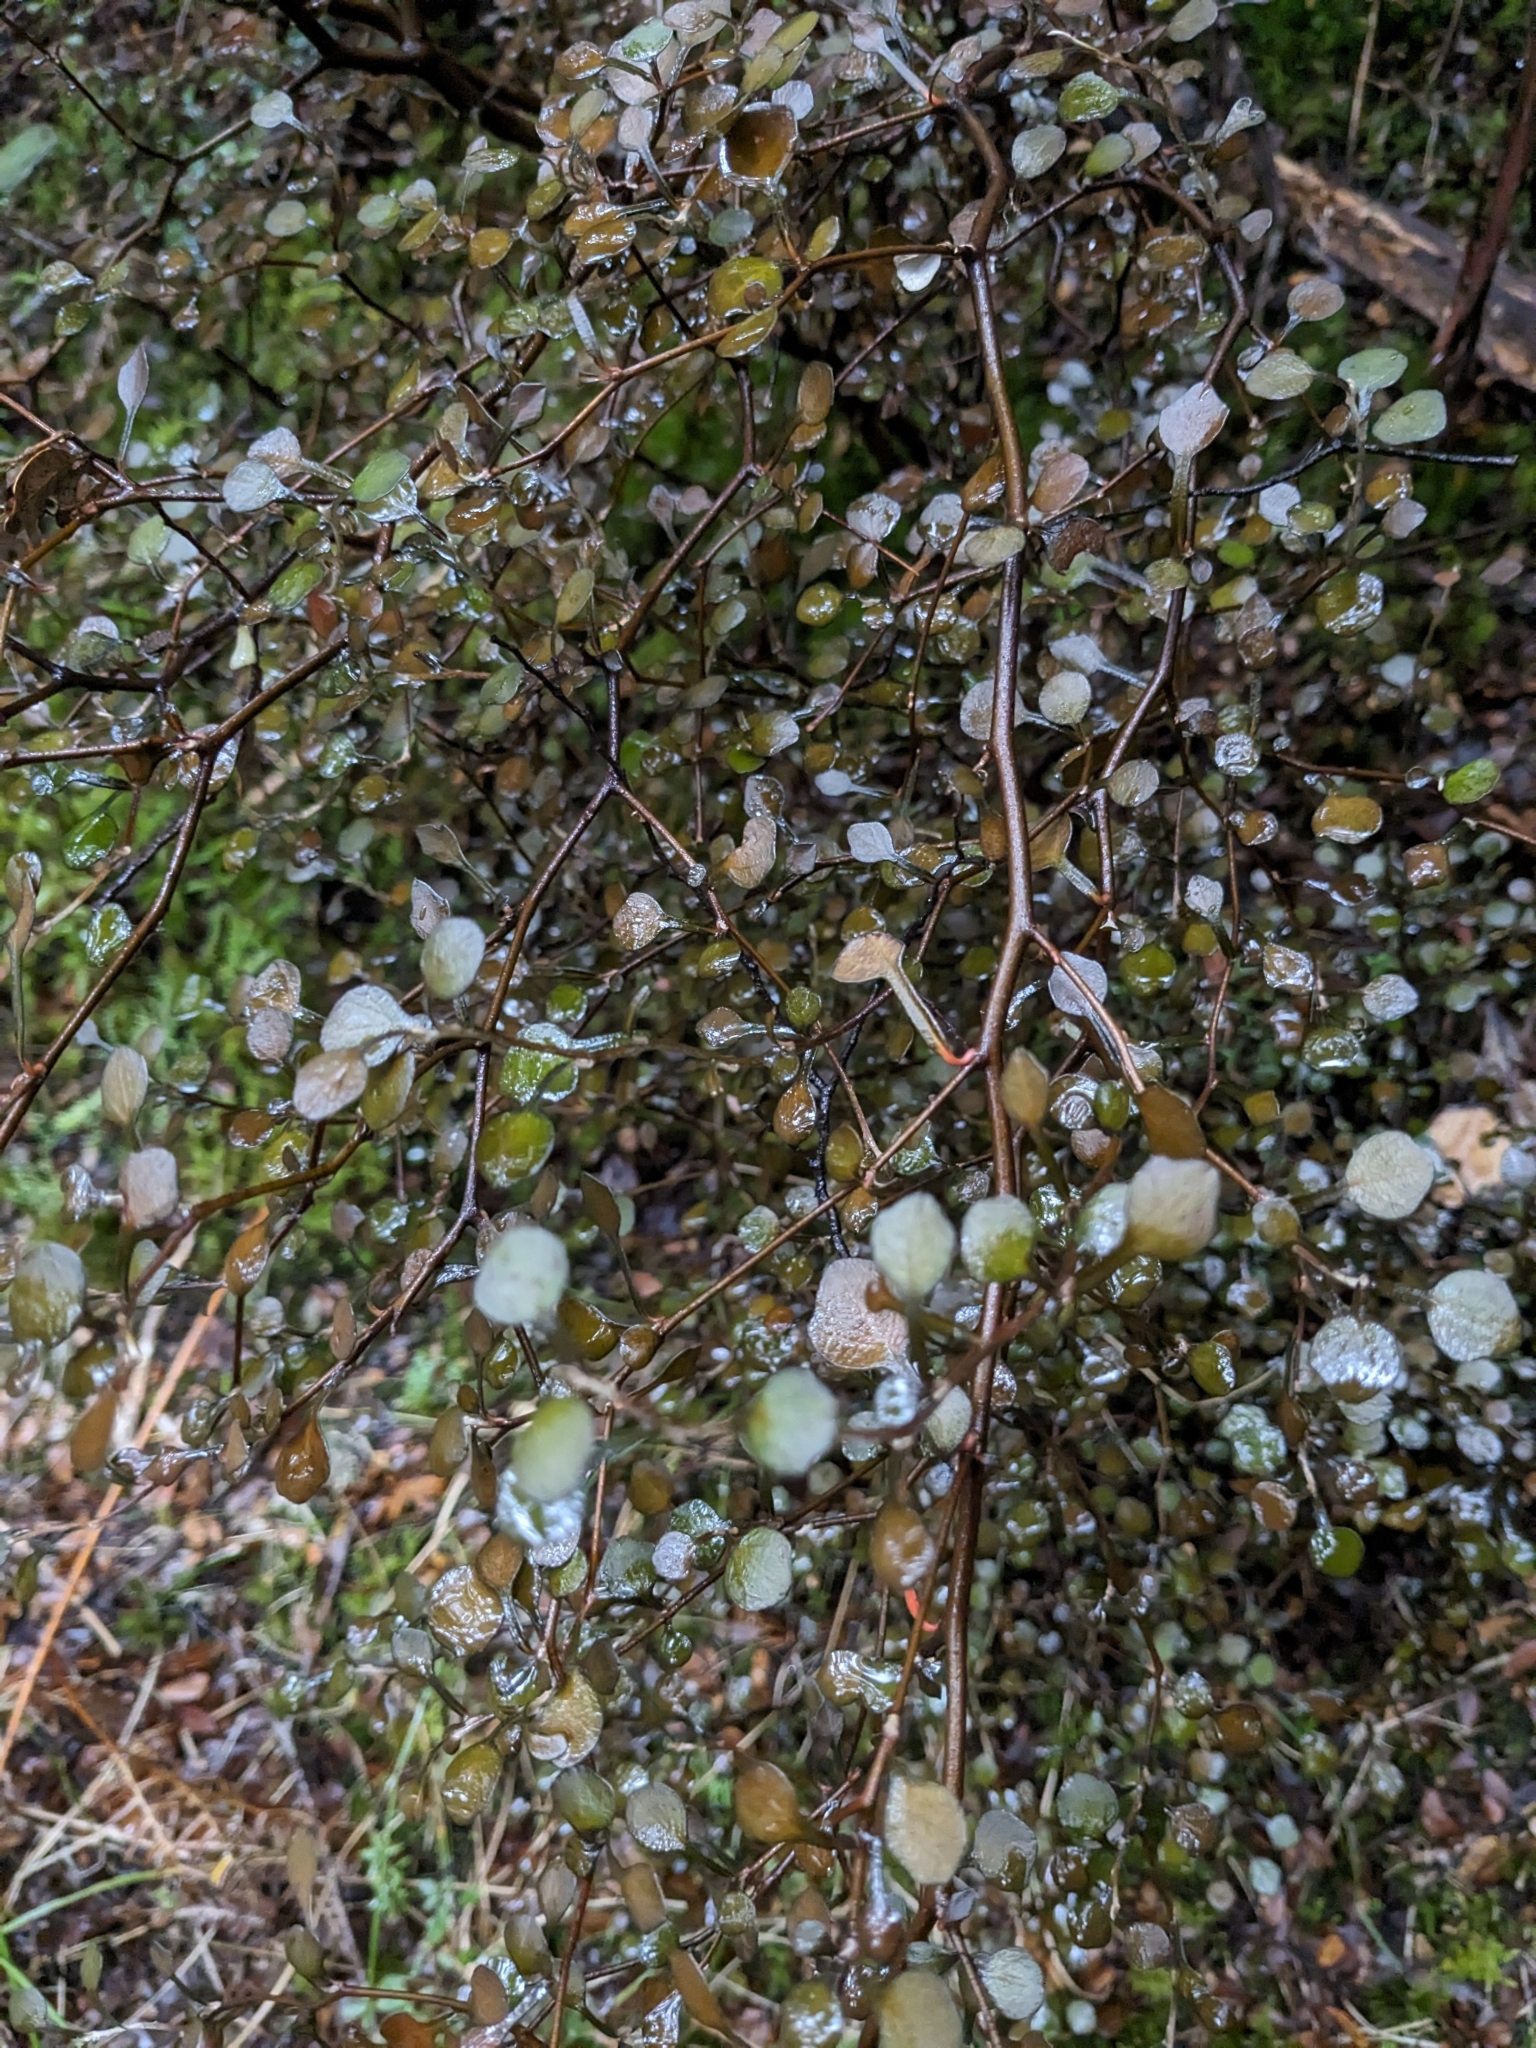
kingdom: Plantae
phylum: Tracheophyta
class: Magnoliopsida
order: Asterales
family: Argophyllaceae
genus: Corokia
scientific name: Corokia cotoneaster
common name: Wire nettingbush
